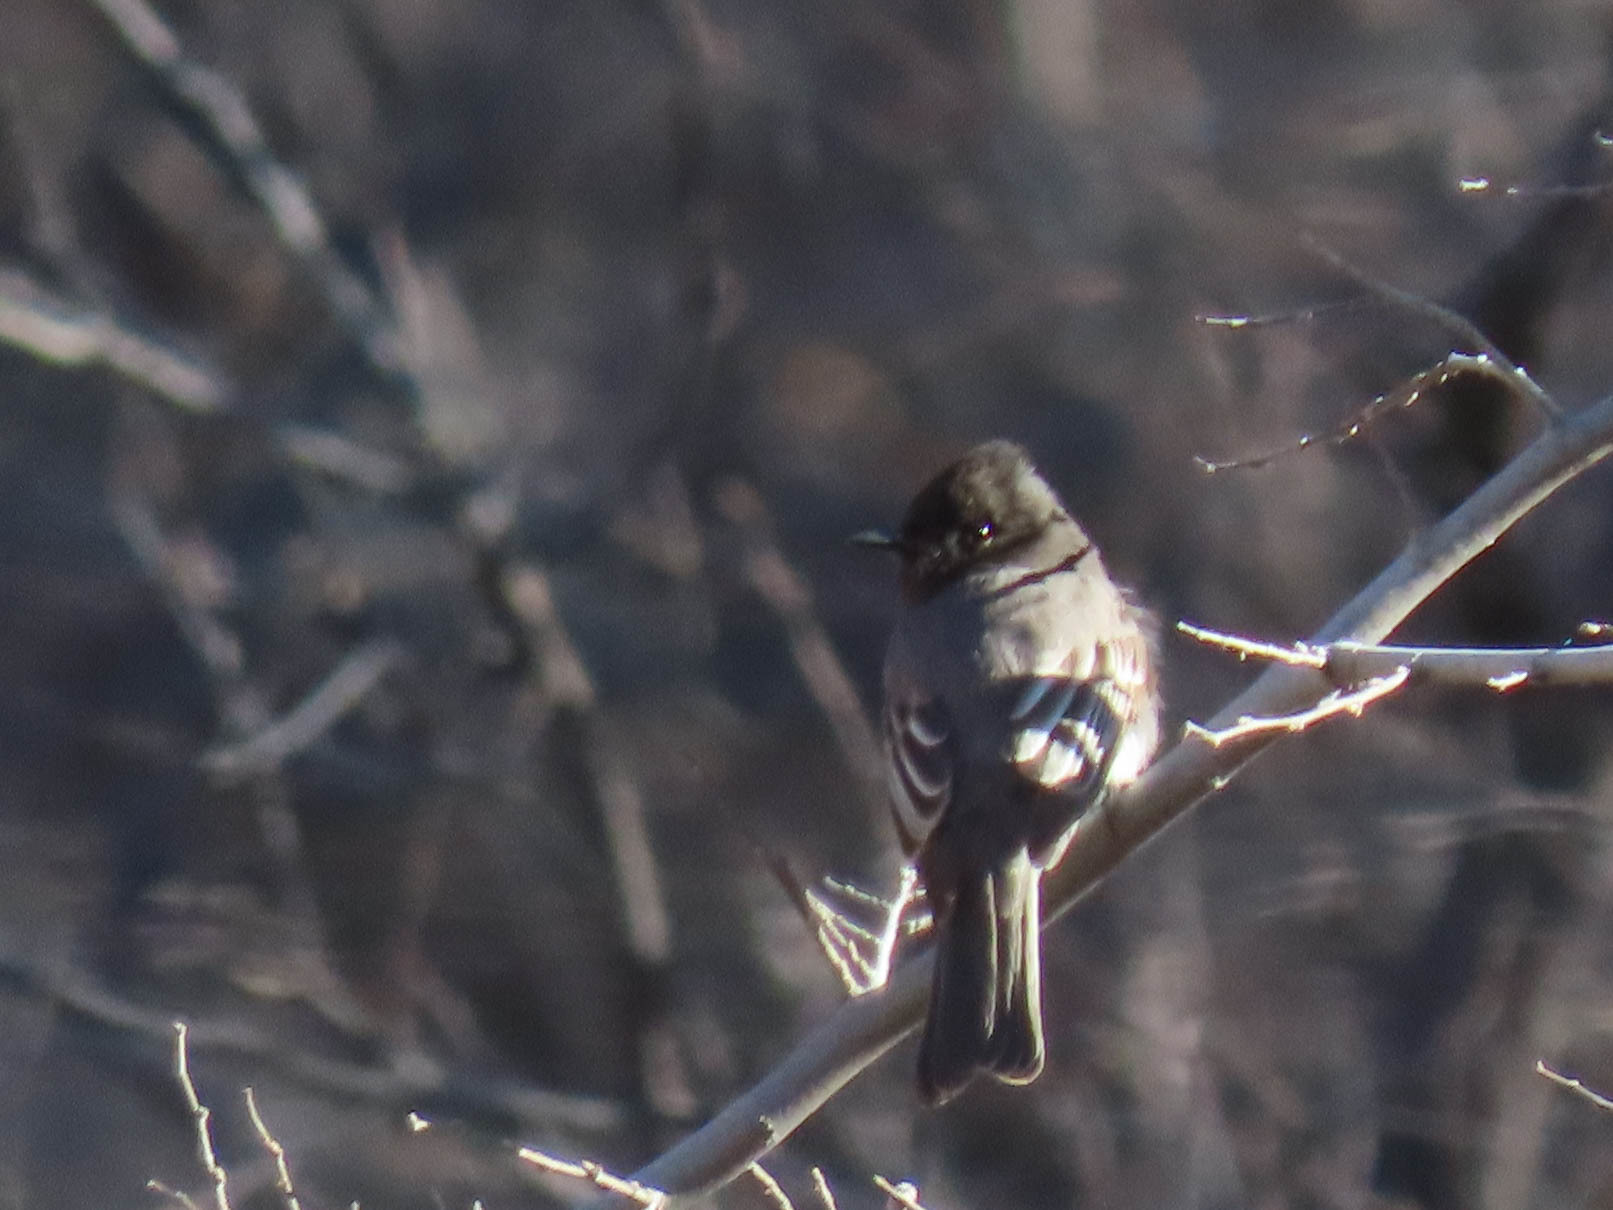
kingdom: Animalia
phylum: Chordata
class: Aves
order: Passeriformes
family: Tyrannidae
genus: Sayornis
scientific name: Sayornis nigricans
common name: Black phoebe
